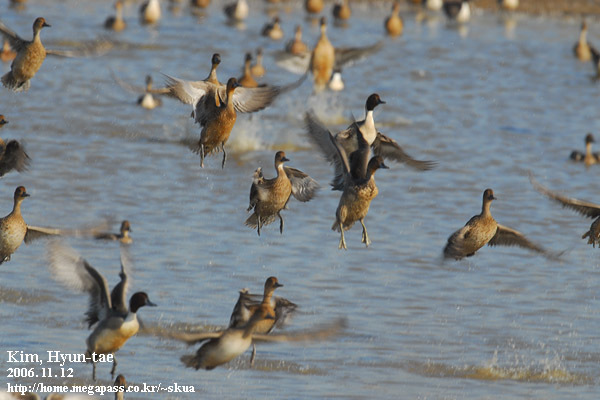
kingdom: Animalia
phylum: Chordata
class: Aves
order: Anseriformes
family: Anatidae
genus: Anas
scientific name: Anas acuta
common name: Northern pintail
